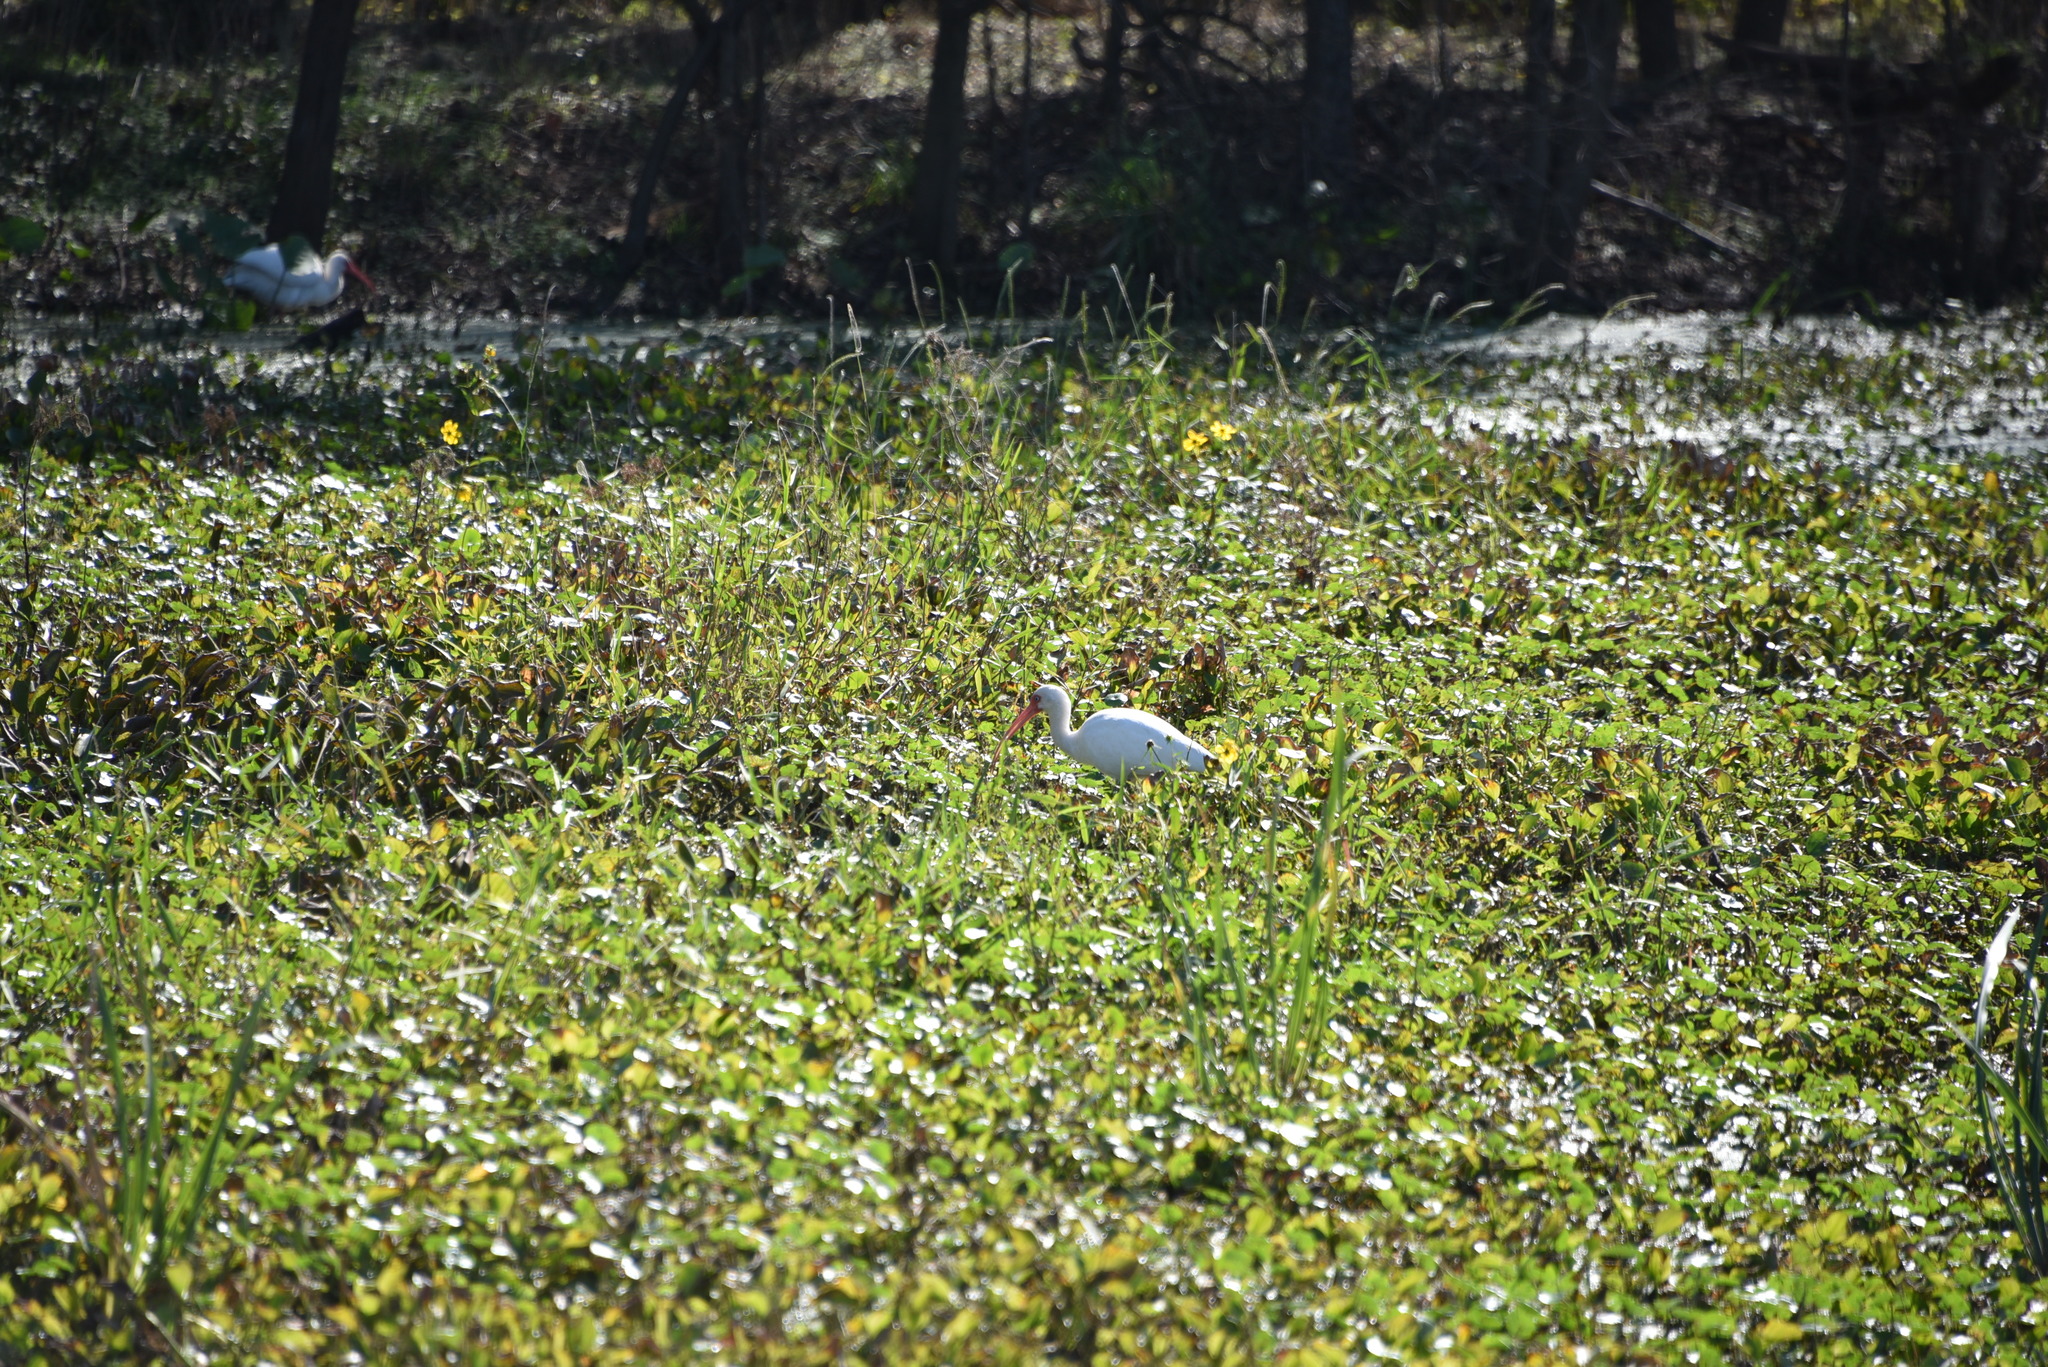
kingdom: Animalia
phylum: Chordata
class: Aves
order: Pelecaniformes
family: Threskiornithidae
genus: Eudocimus
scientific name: Eudocimus albus
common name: White ibis
